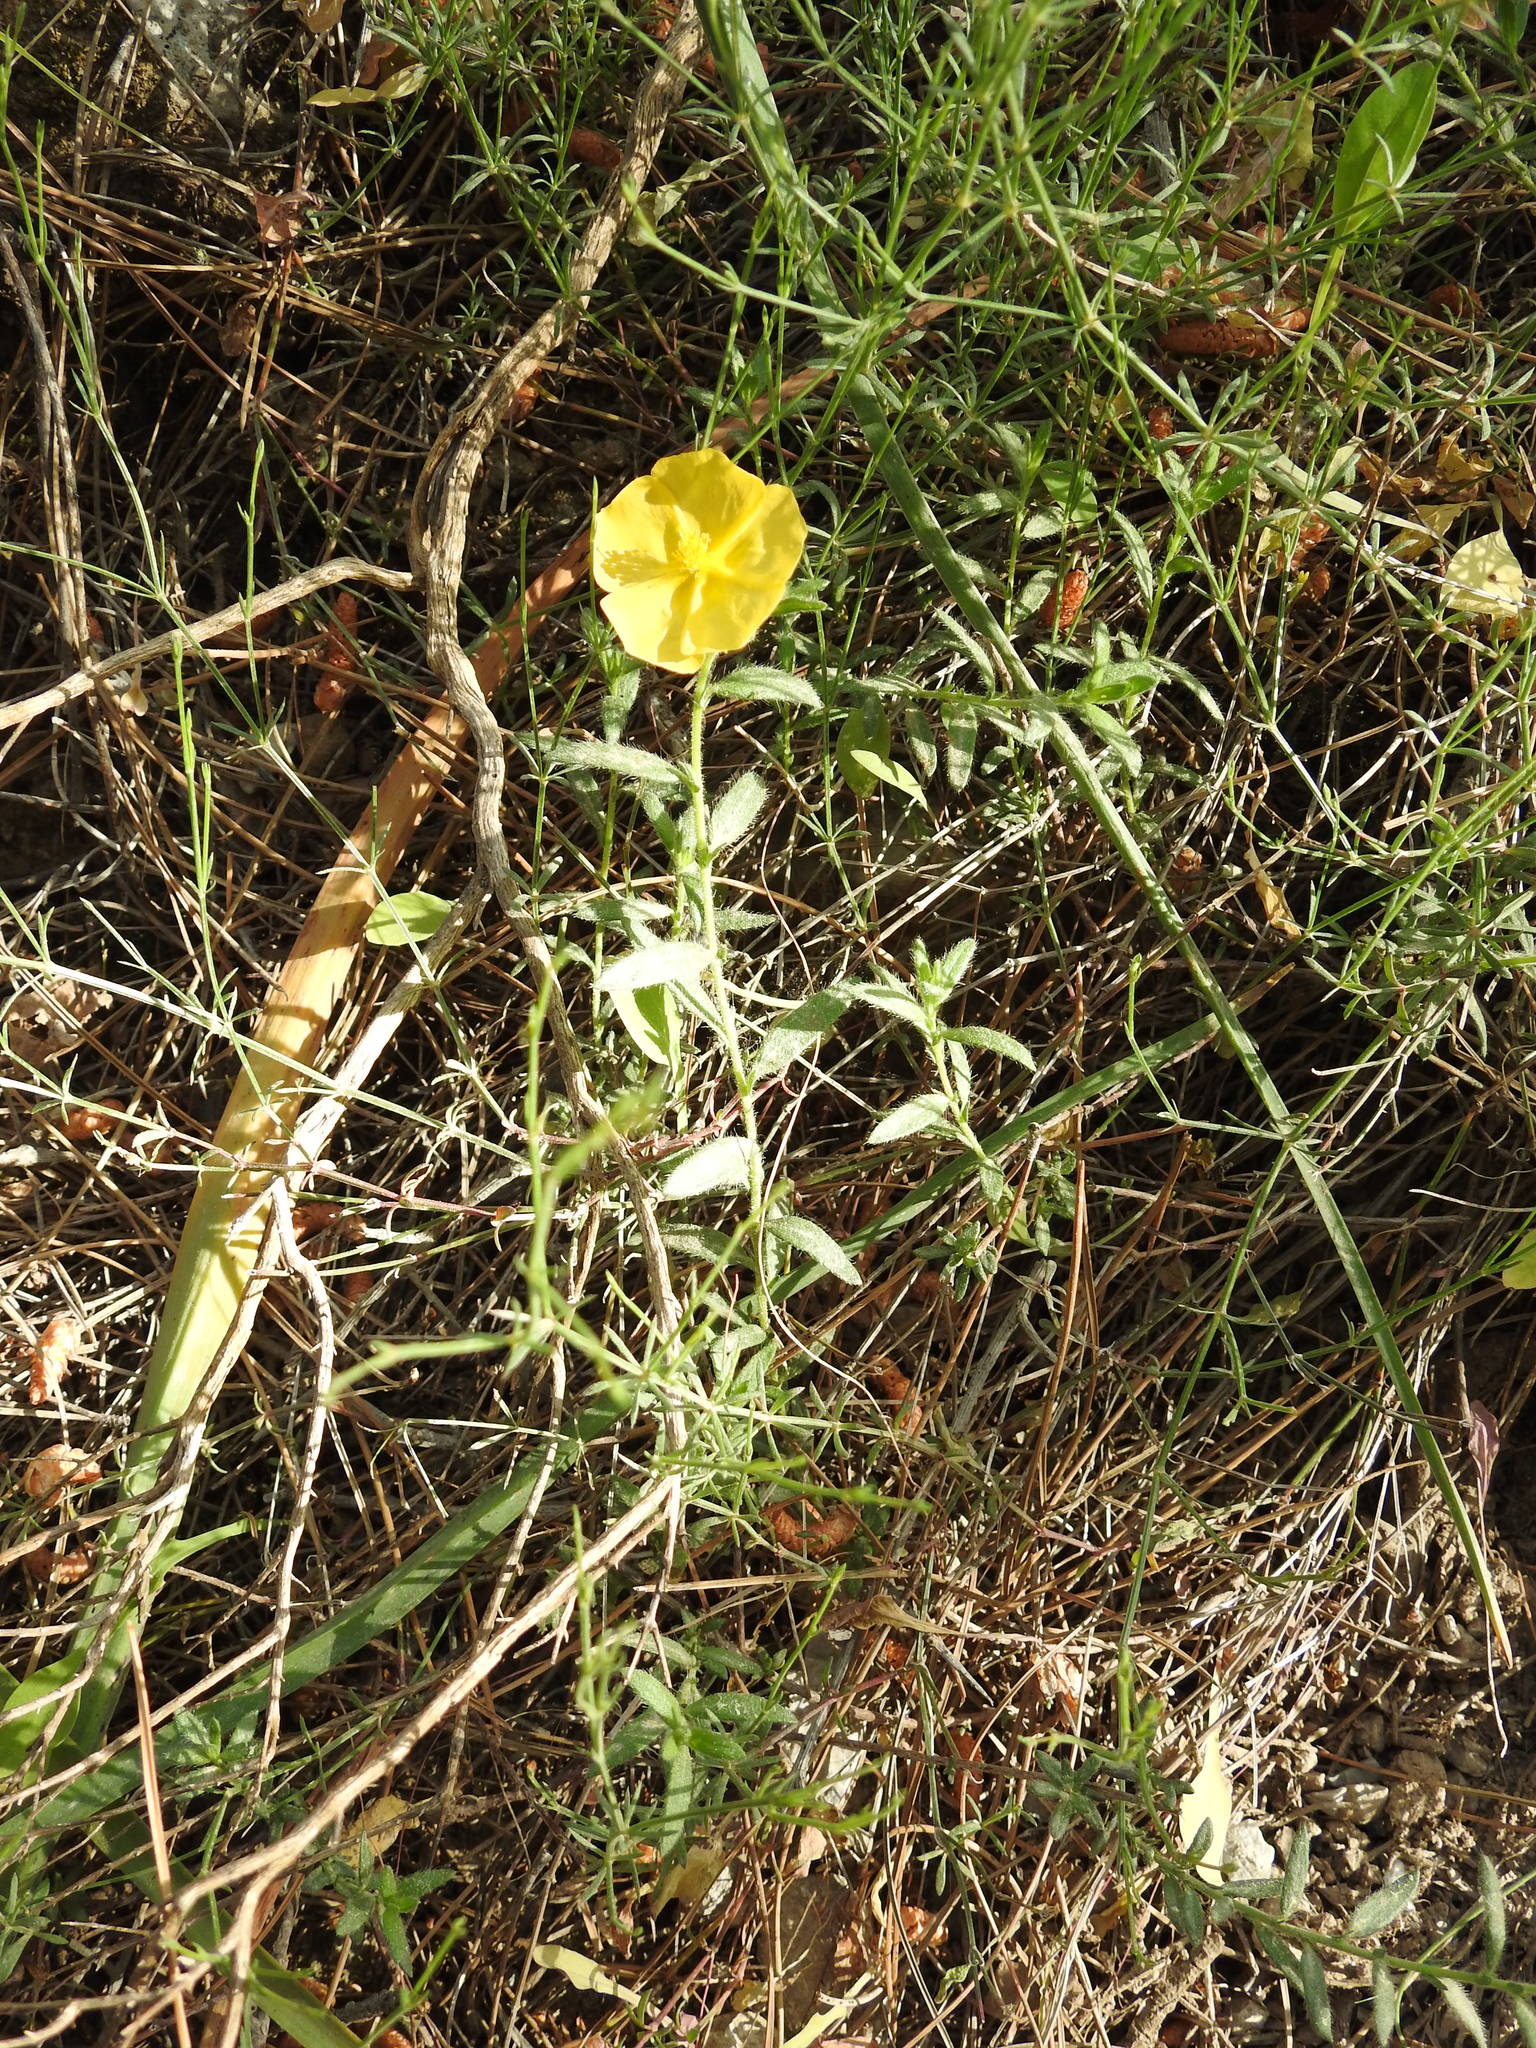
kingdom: Plantae
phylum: Tracheophyta
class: Magnoliopsida
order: Malvales
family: Cistaceae
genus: Fumana
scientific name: Fumana arabica
